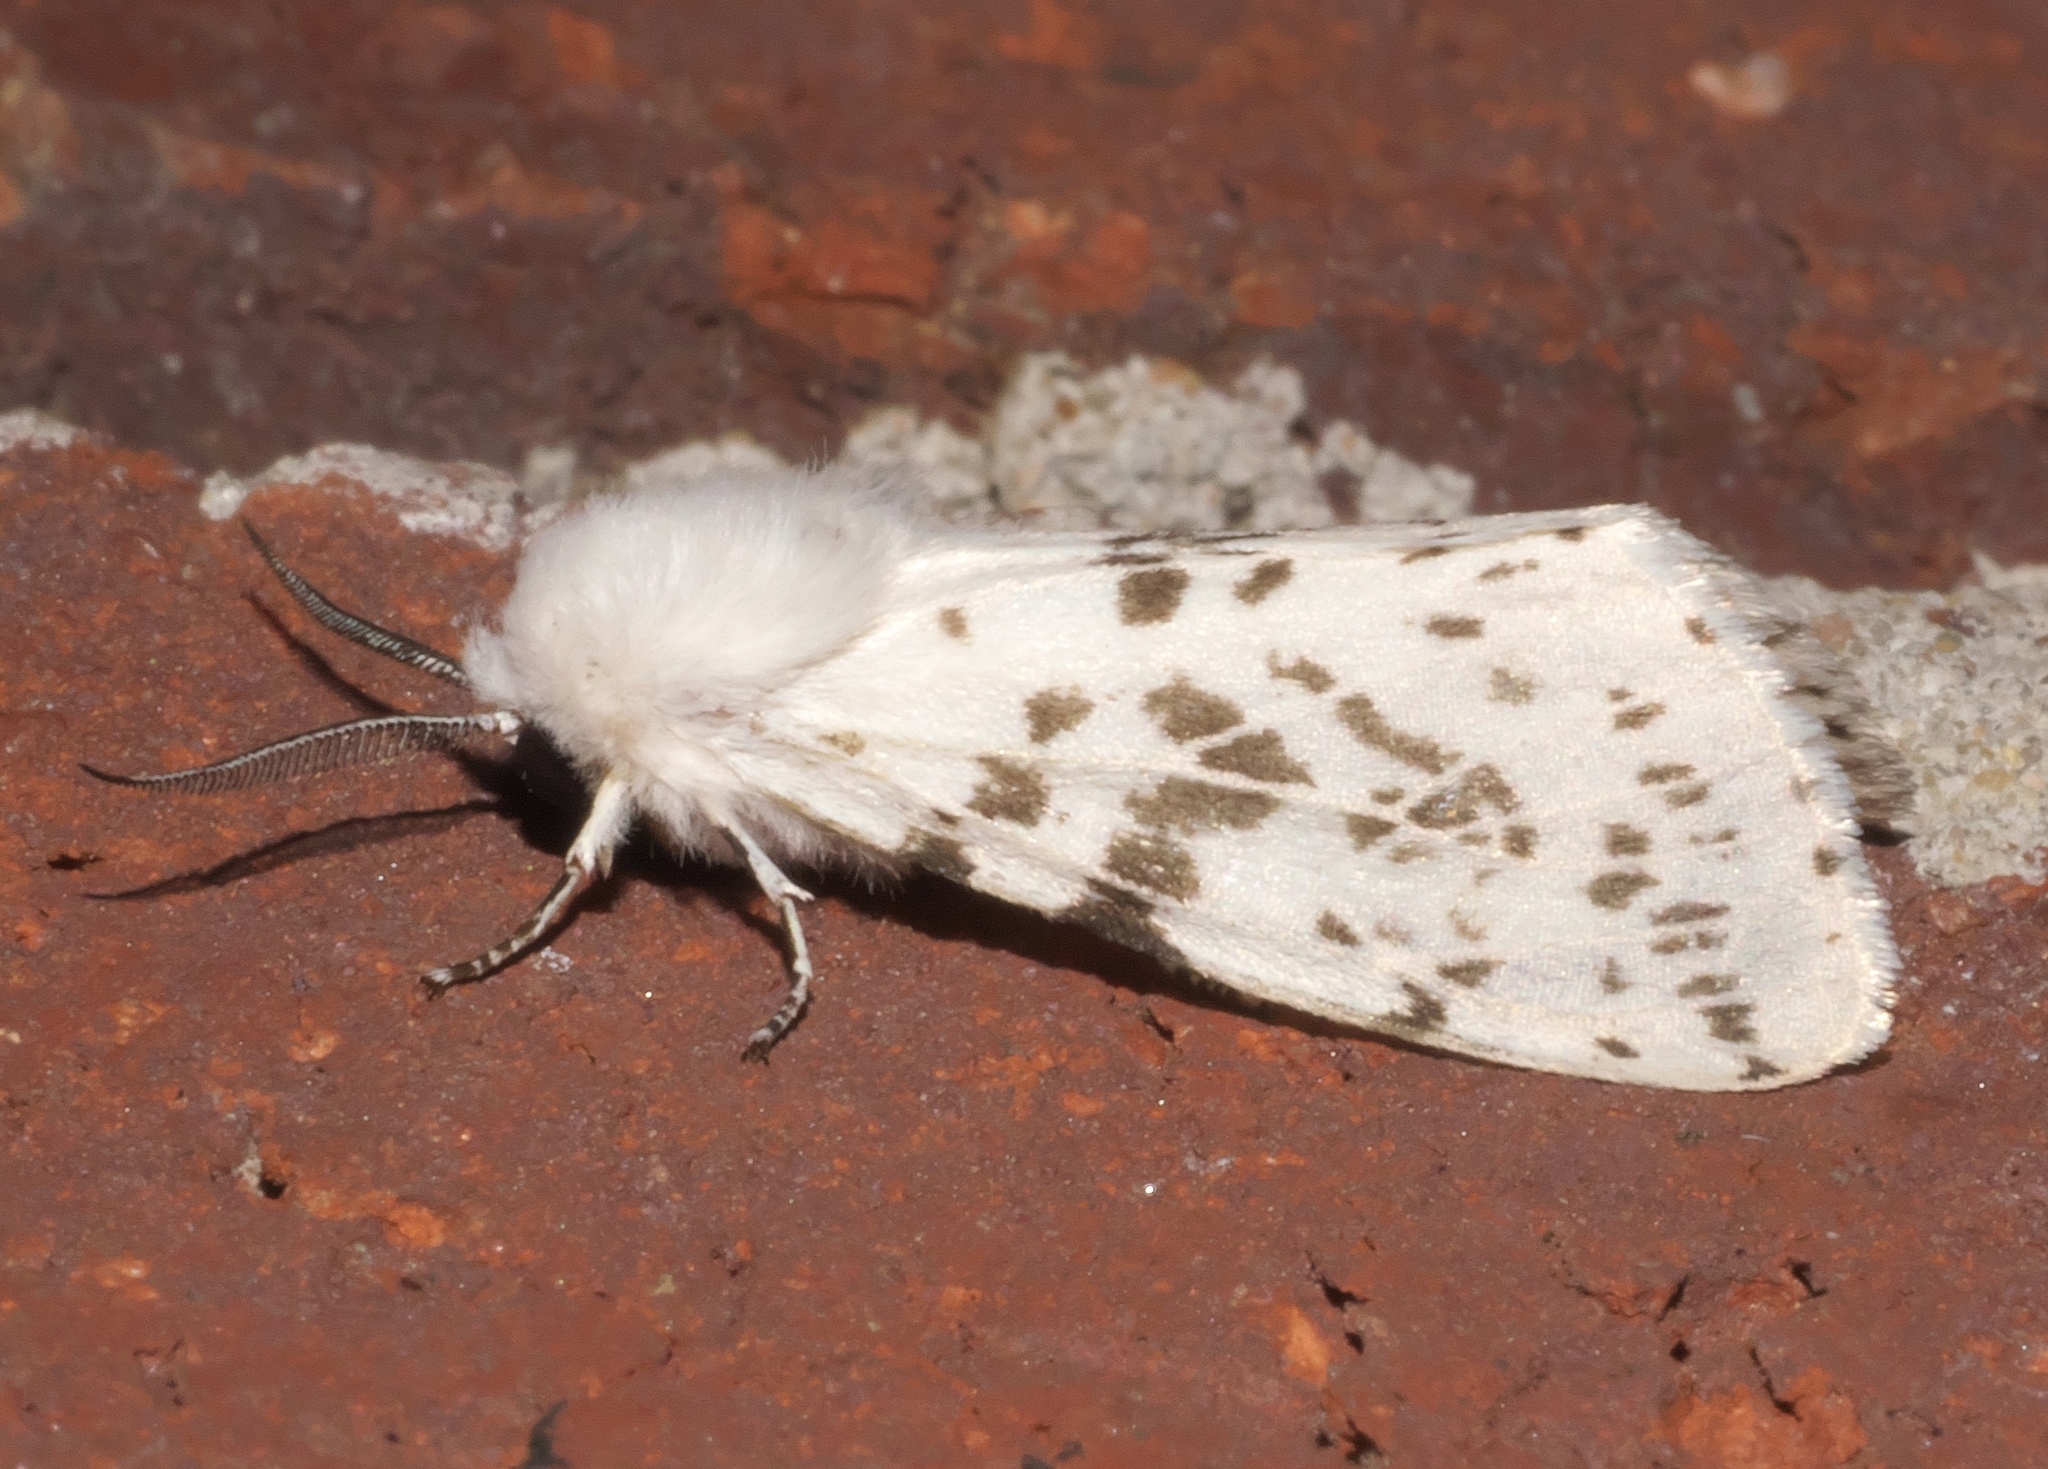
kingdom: Animalia
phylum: Arthropoda
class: Insecta
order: Lepidoptera
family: Erebidae
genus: Hyphantria
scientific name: Hyphantria cunea
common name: American white moth
